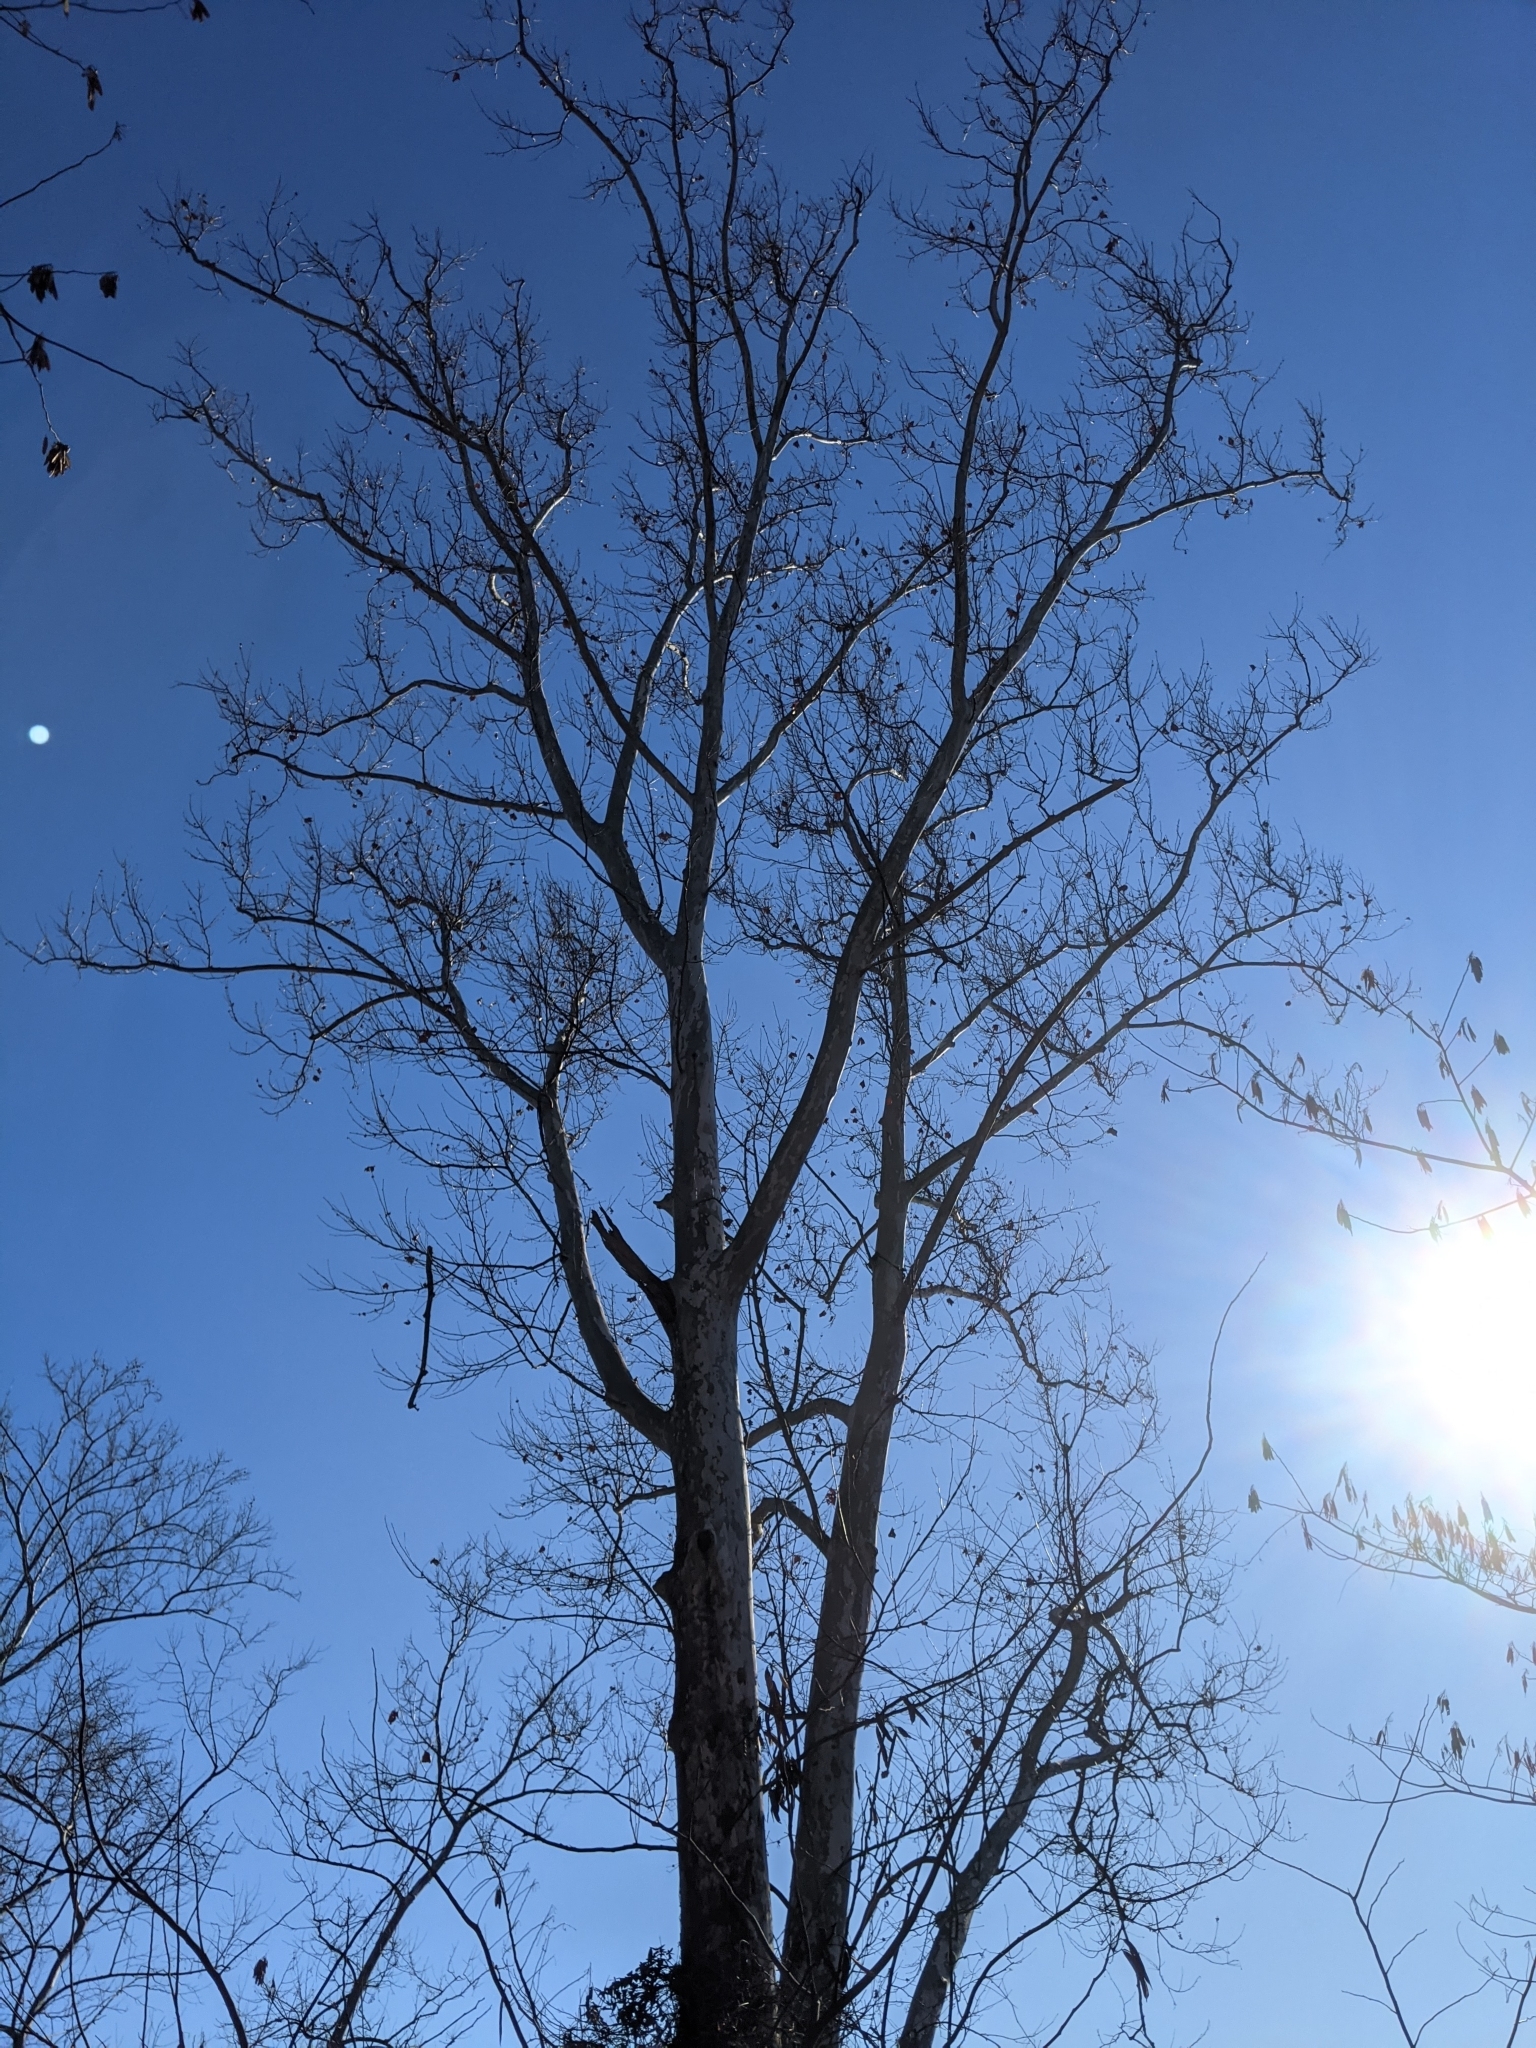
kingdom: Plantae
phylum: Tracheophyta
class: Magnoliopsida
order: Proteales
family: Platanaceae
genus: Platanus
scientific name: Platanus occidentalis
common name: American sycamore
